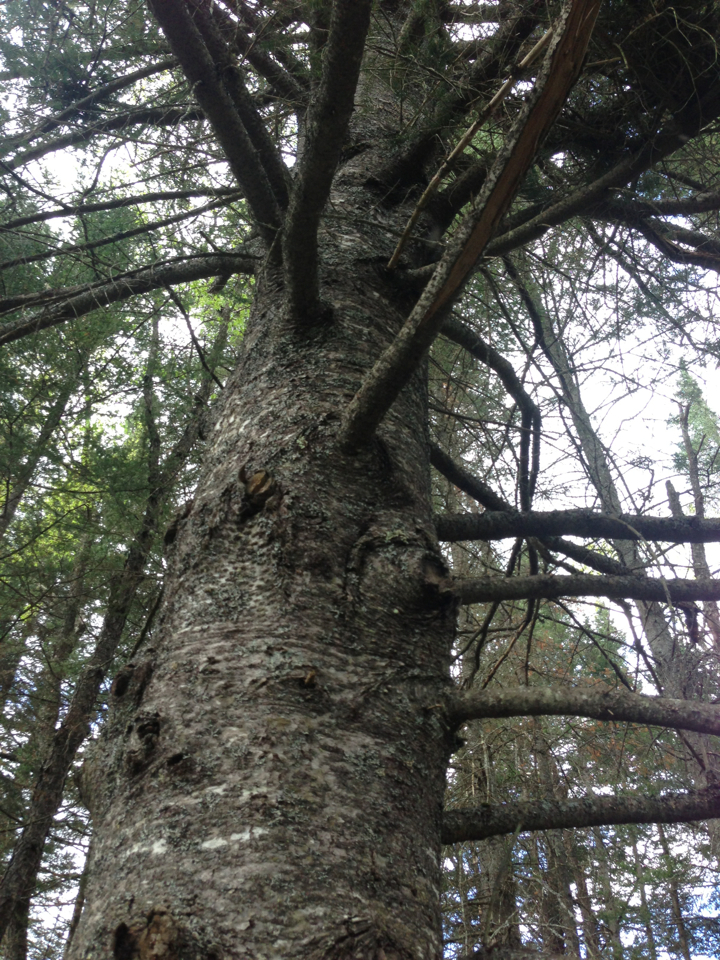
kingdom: Plantae
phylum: Tracheophyta
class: Pinopsida
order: Pinales
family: Pinaceae
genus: Abies
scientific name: Abies balsamea
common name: Balsam fir
